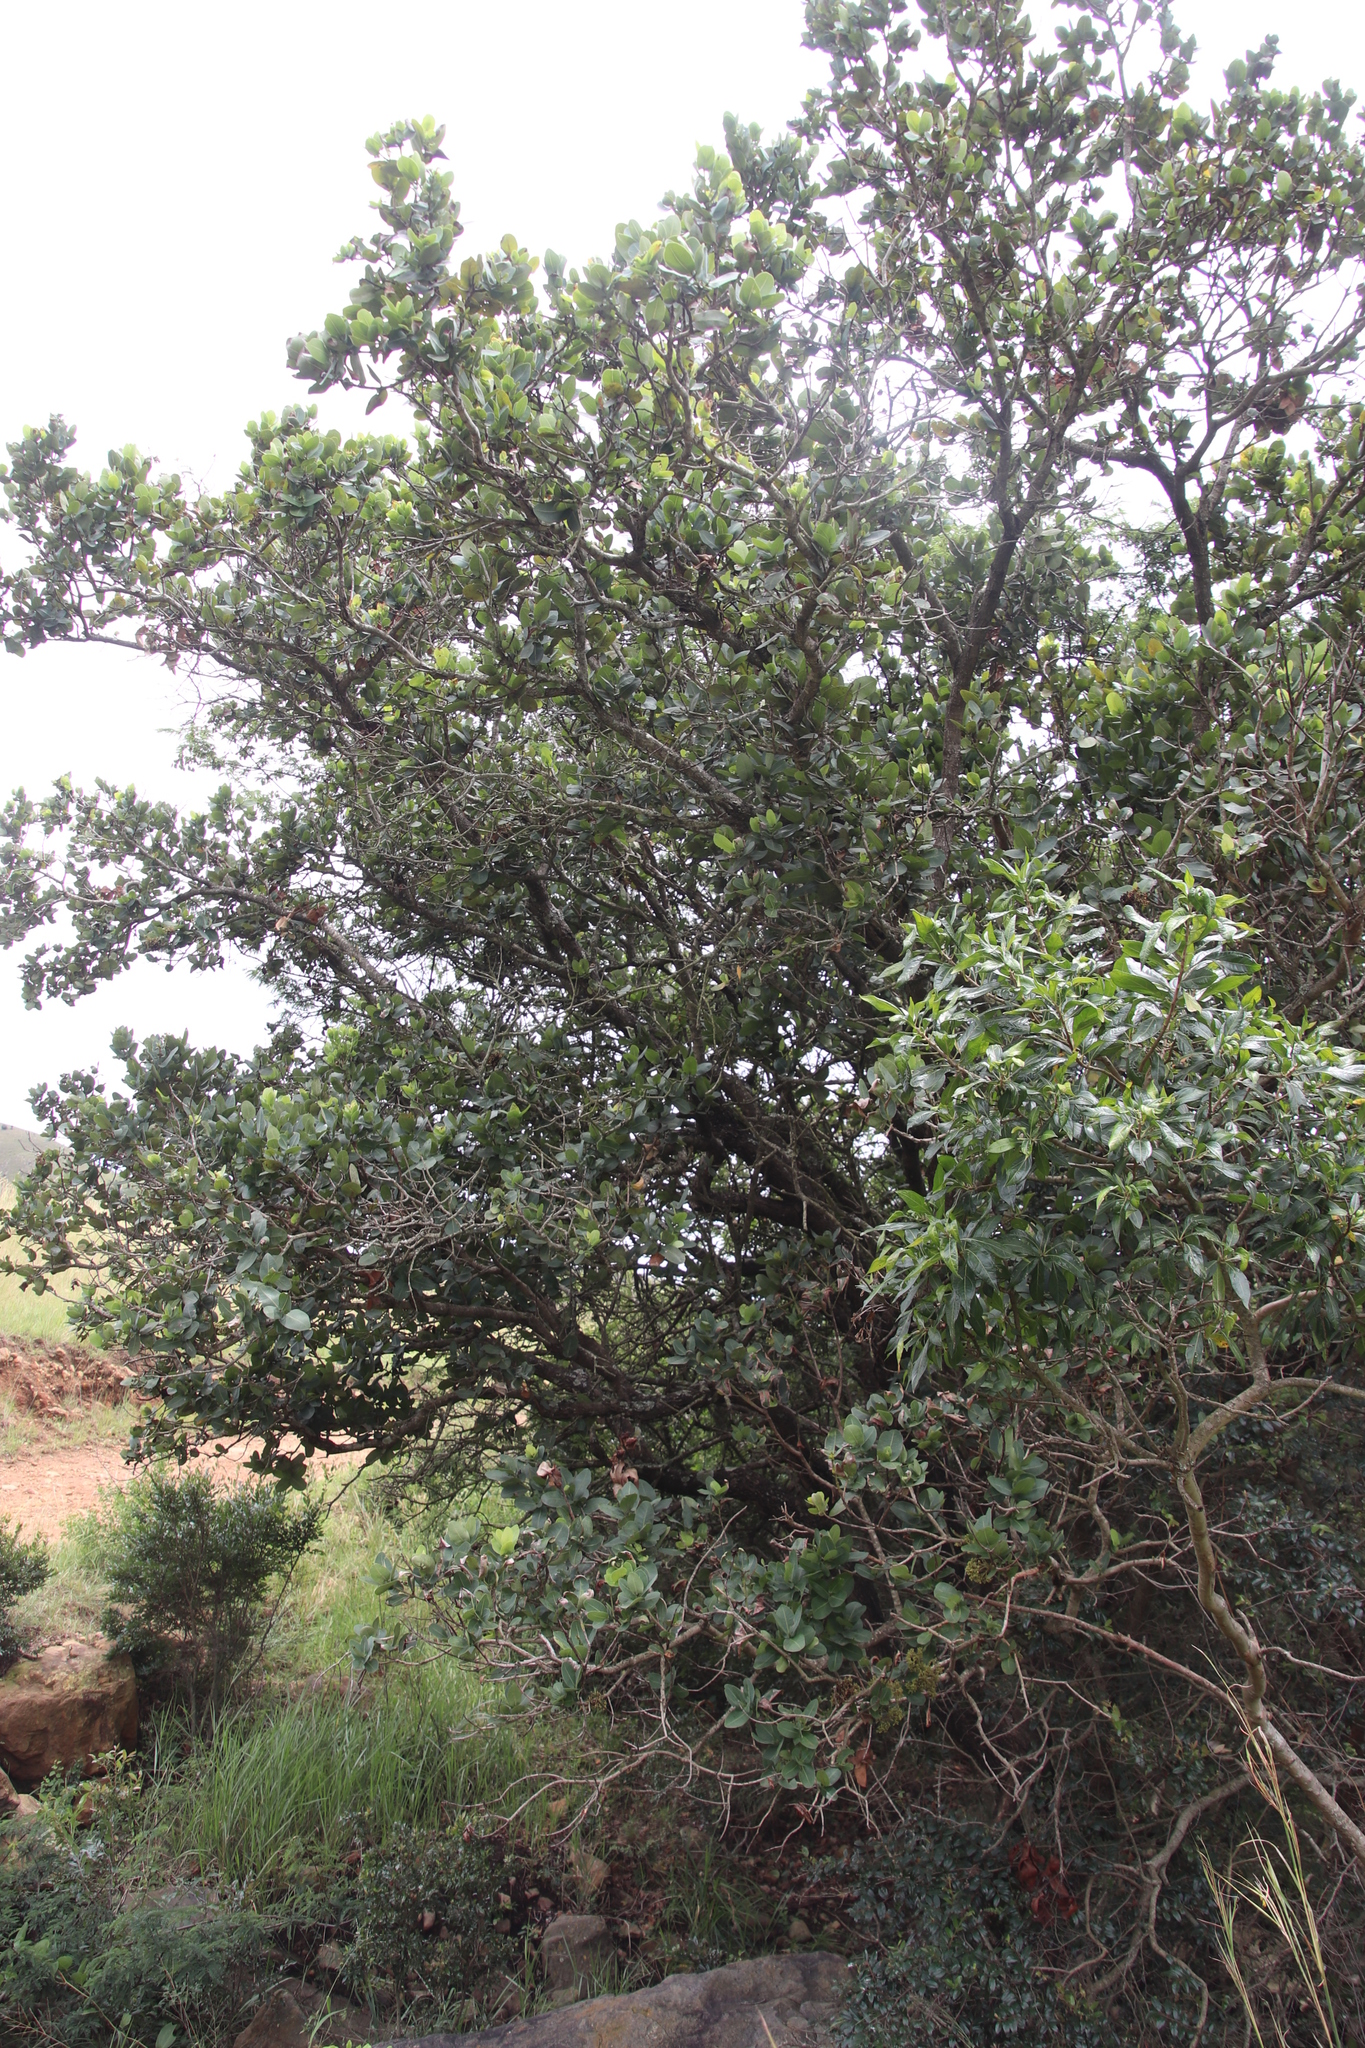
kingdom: Plantae
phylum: Tracheophyta
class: Magnoliopsida
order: Myrtales
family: Myrtaceae
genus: Syzygium
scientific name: Syzygium cordatum
